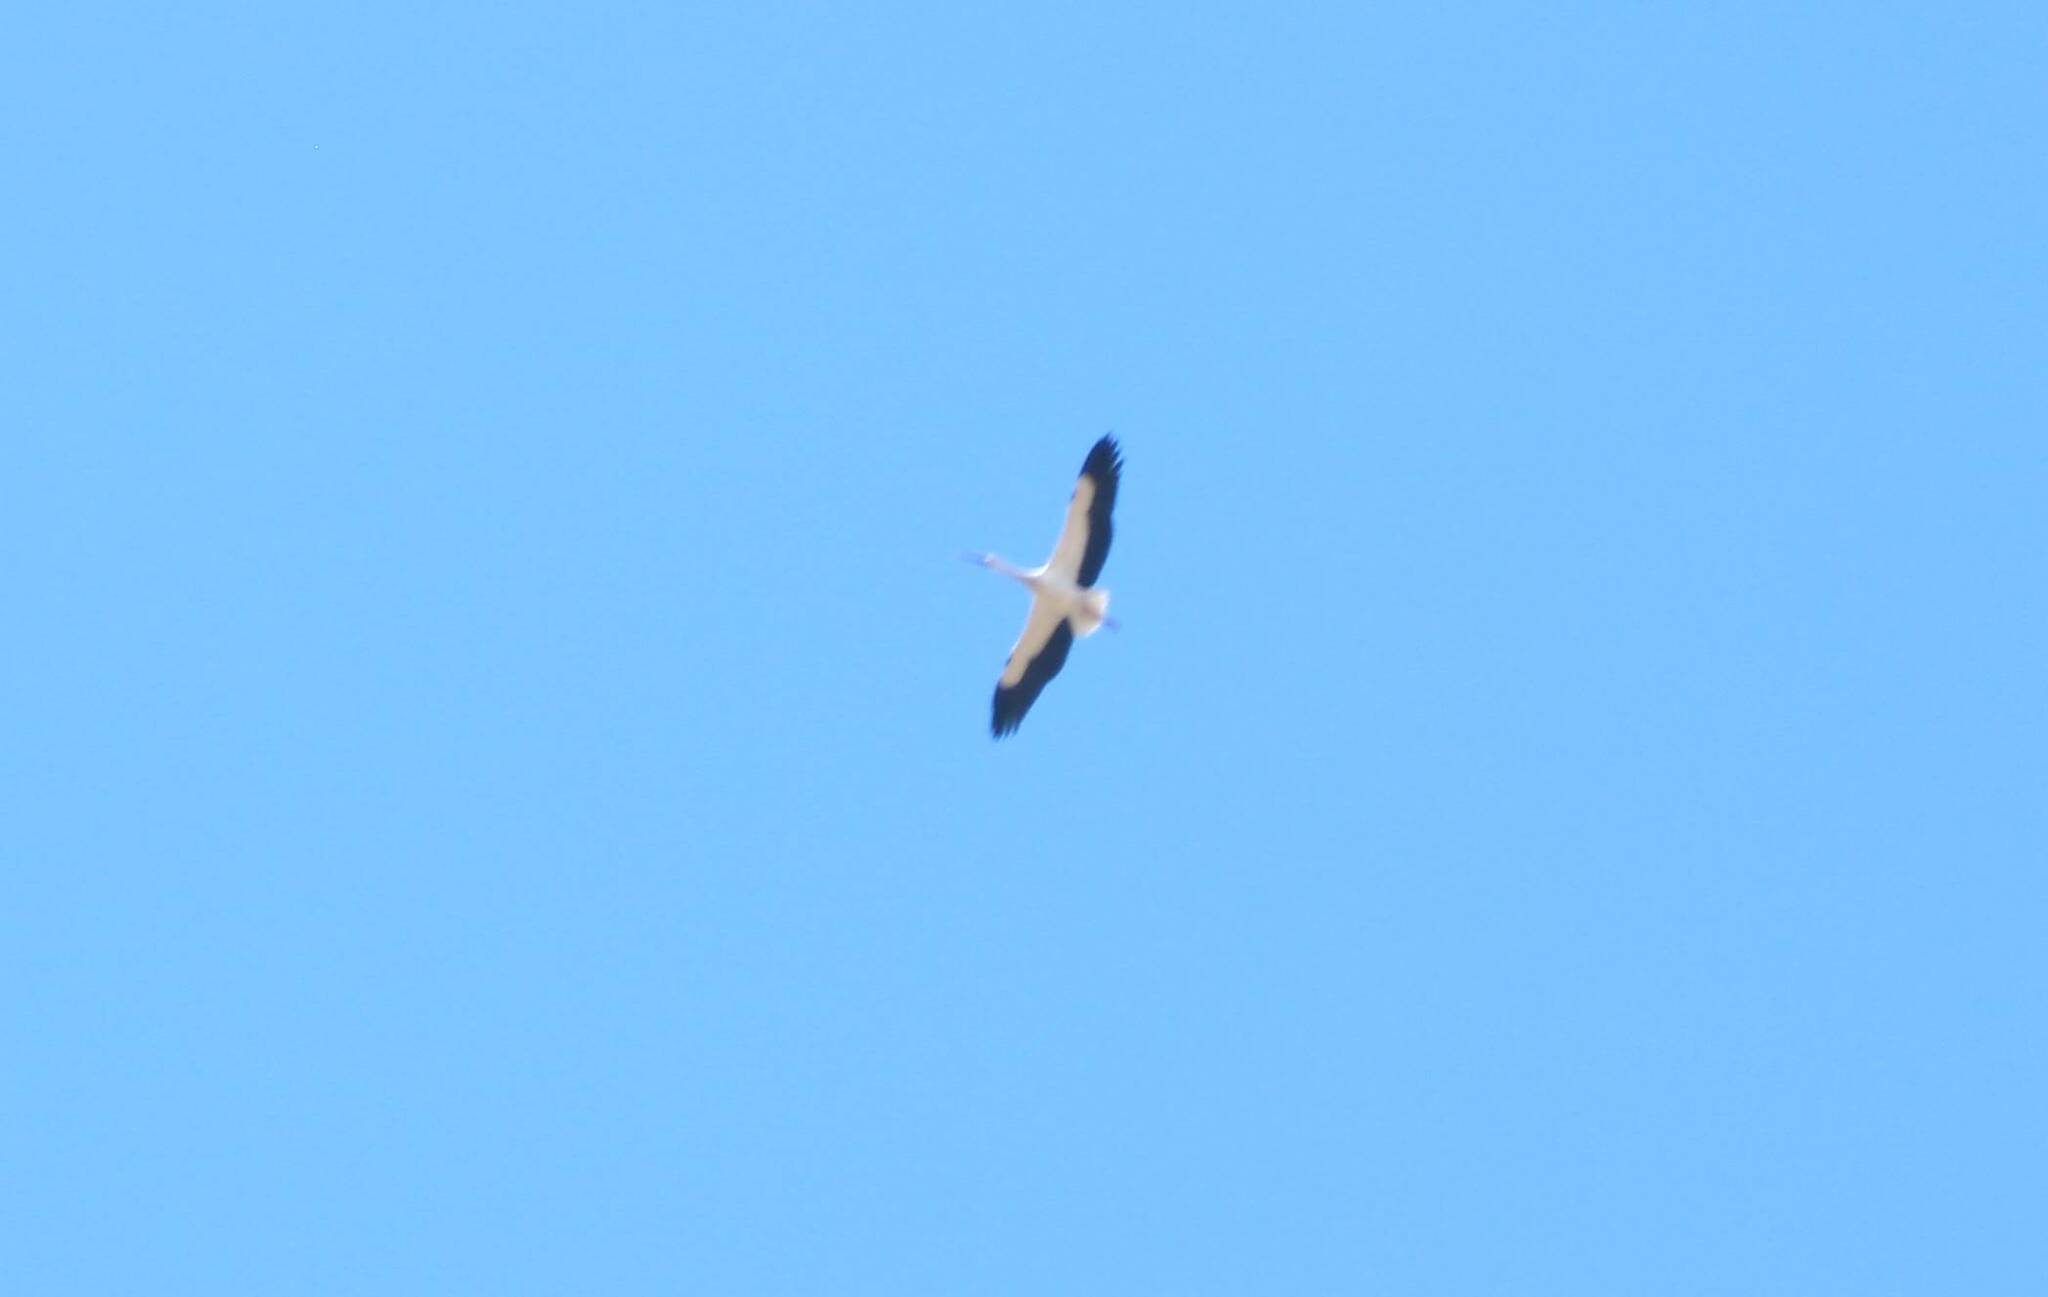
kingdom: Animalia
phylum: Chordata
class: Aves
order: Ciconiiformes
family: Ciconiidae
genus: Ciconia
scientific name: Ciconia ciconia
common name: White stork
